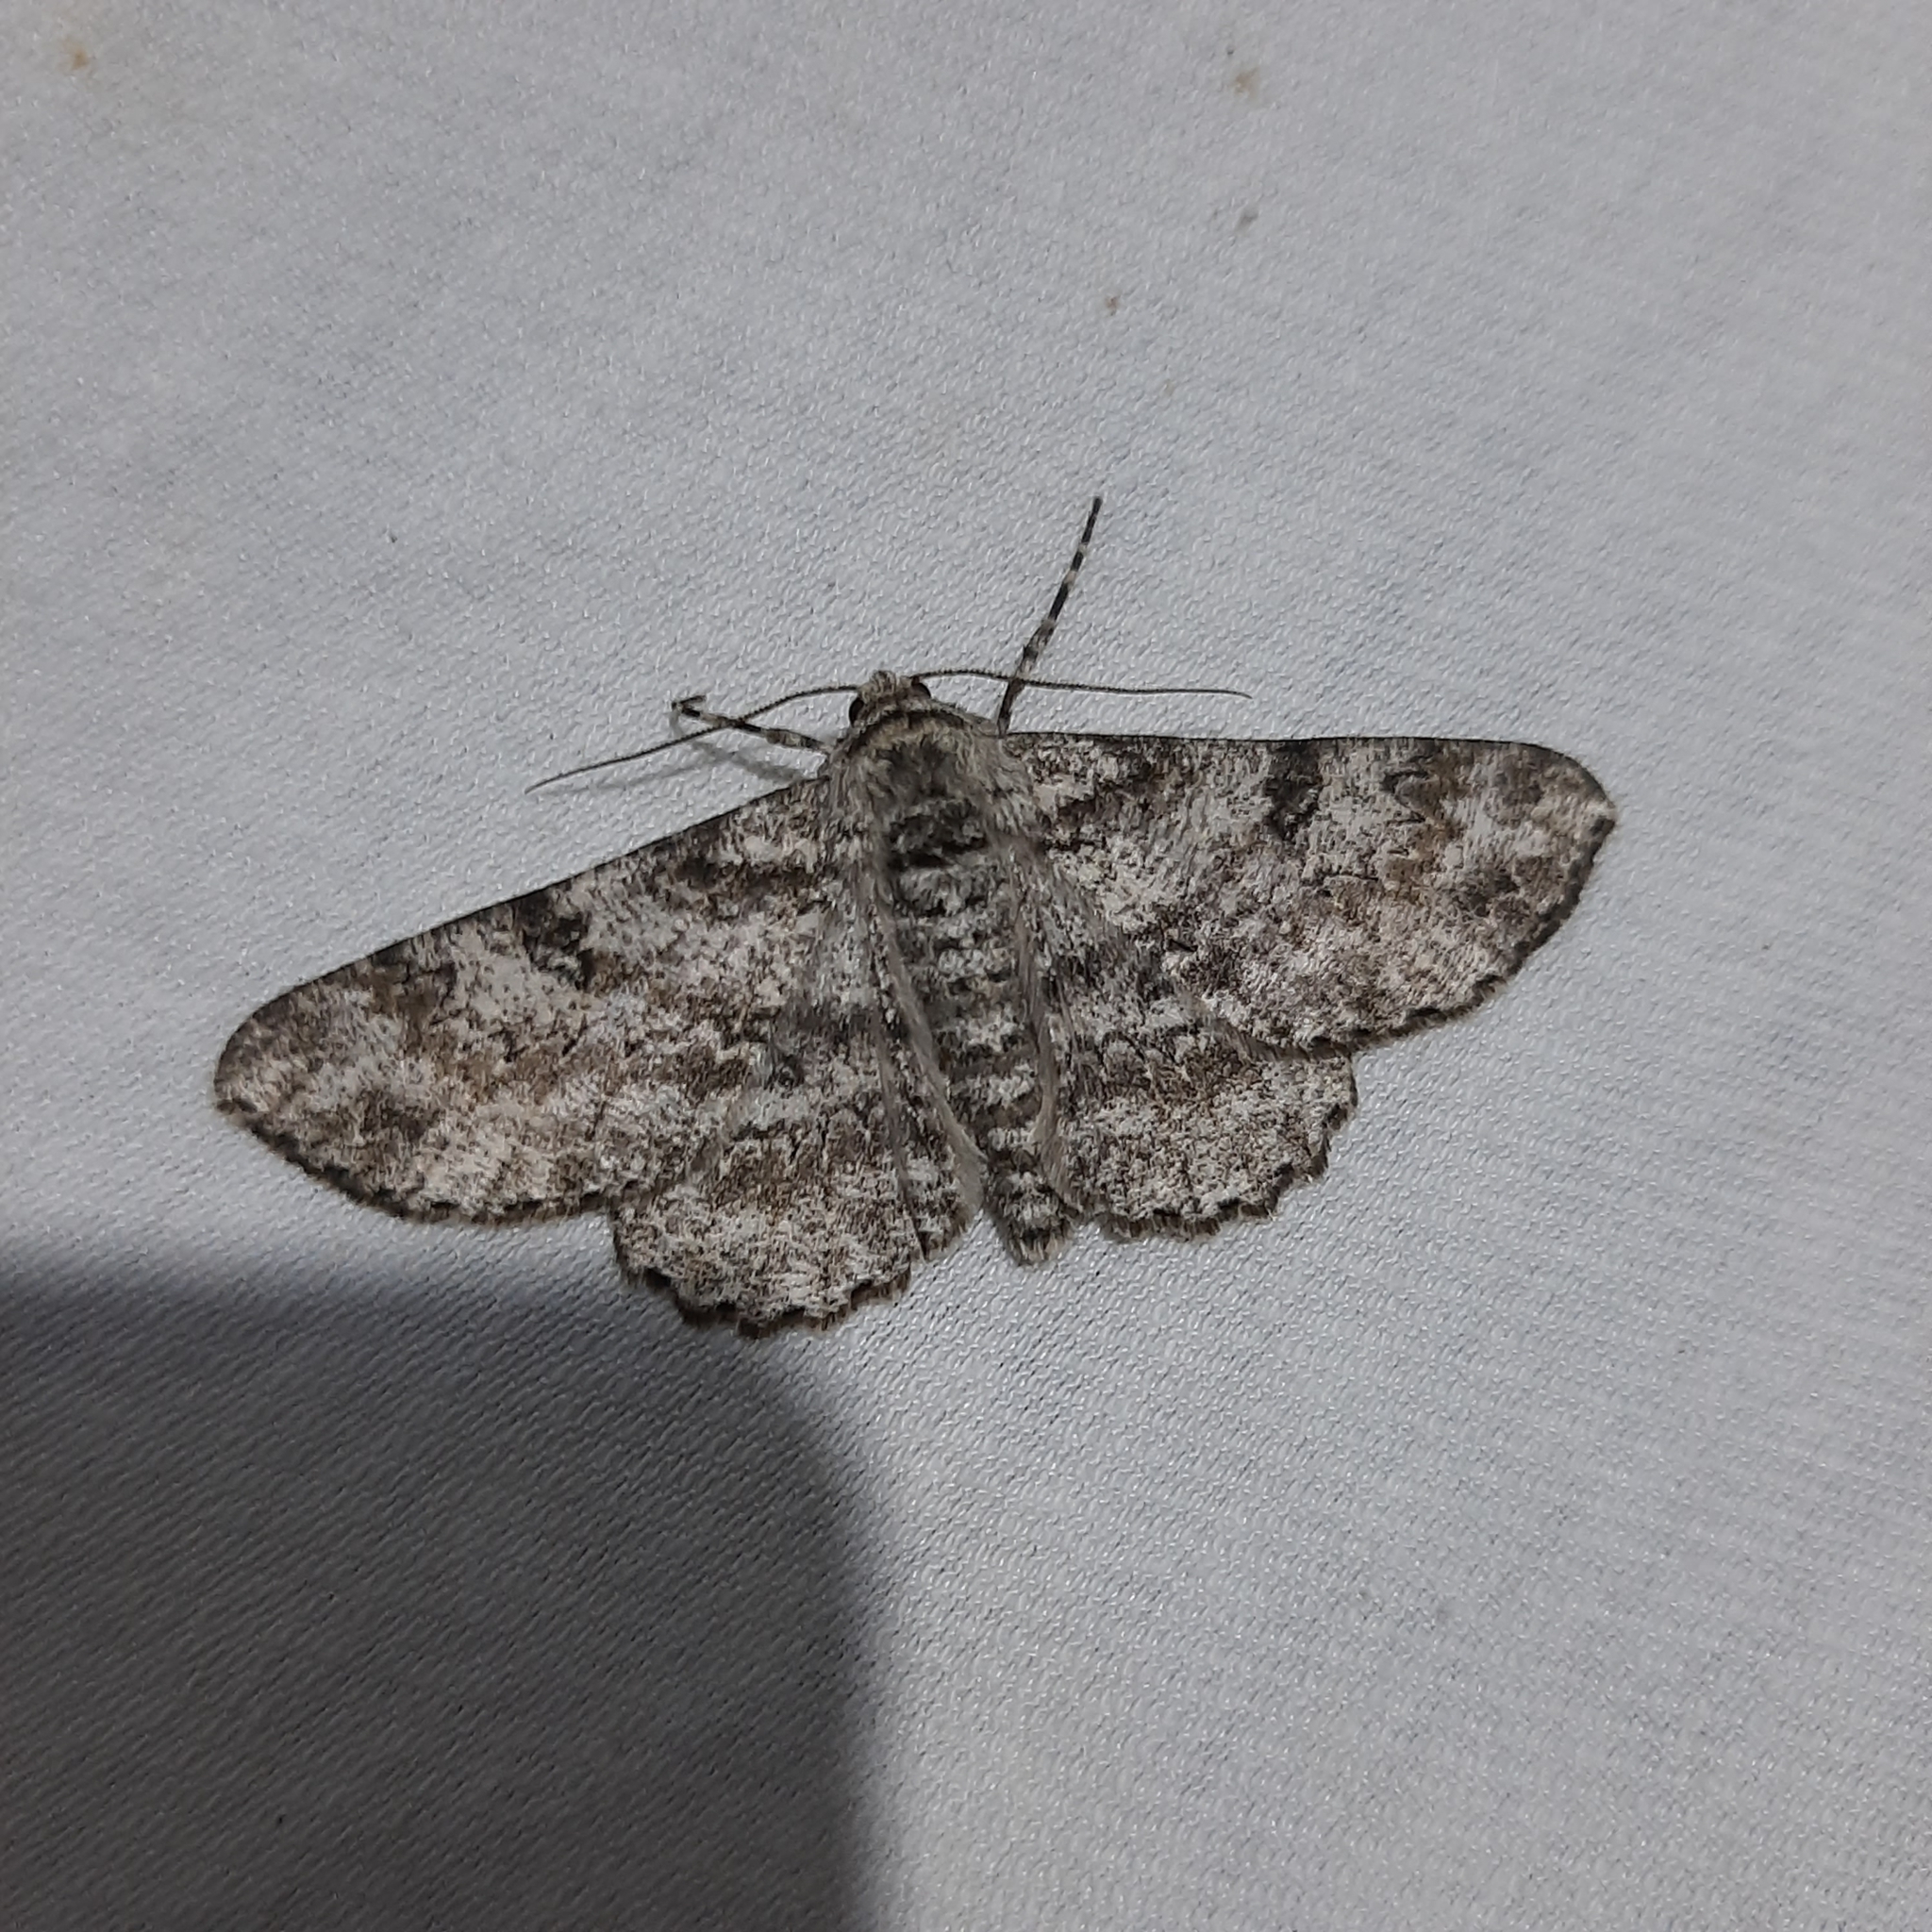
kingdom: Animalia
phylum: Arthropoda
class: Insecta
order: Lepidoptera
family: Geometridae
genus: Ascotis
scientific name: Ascotis selenaria
